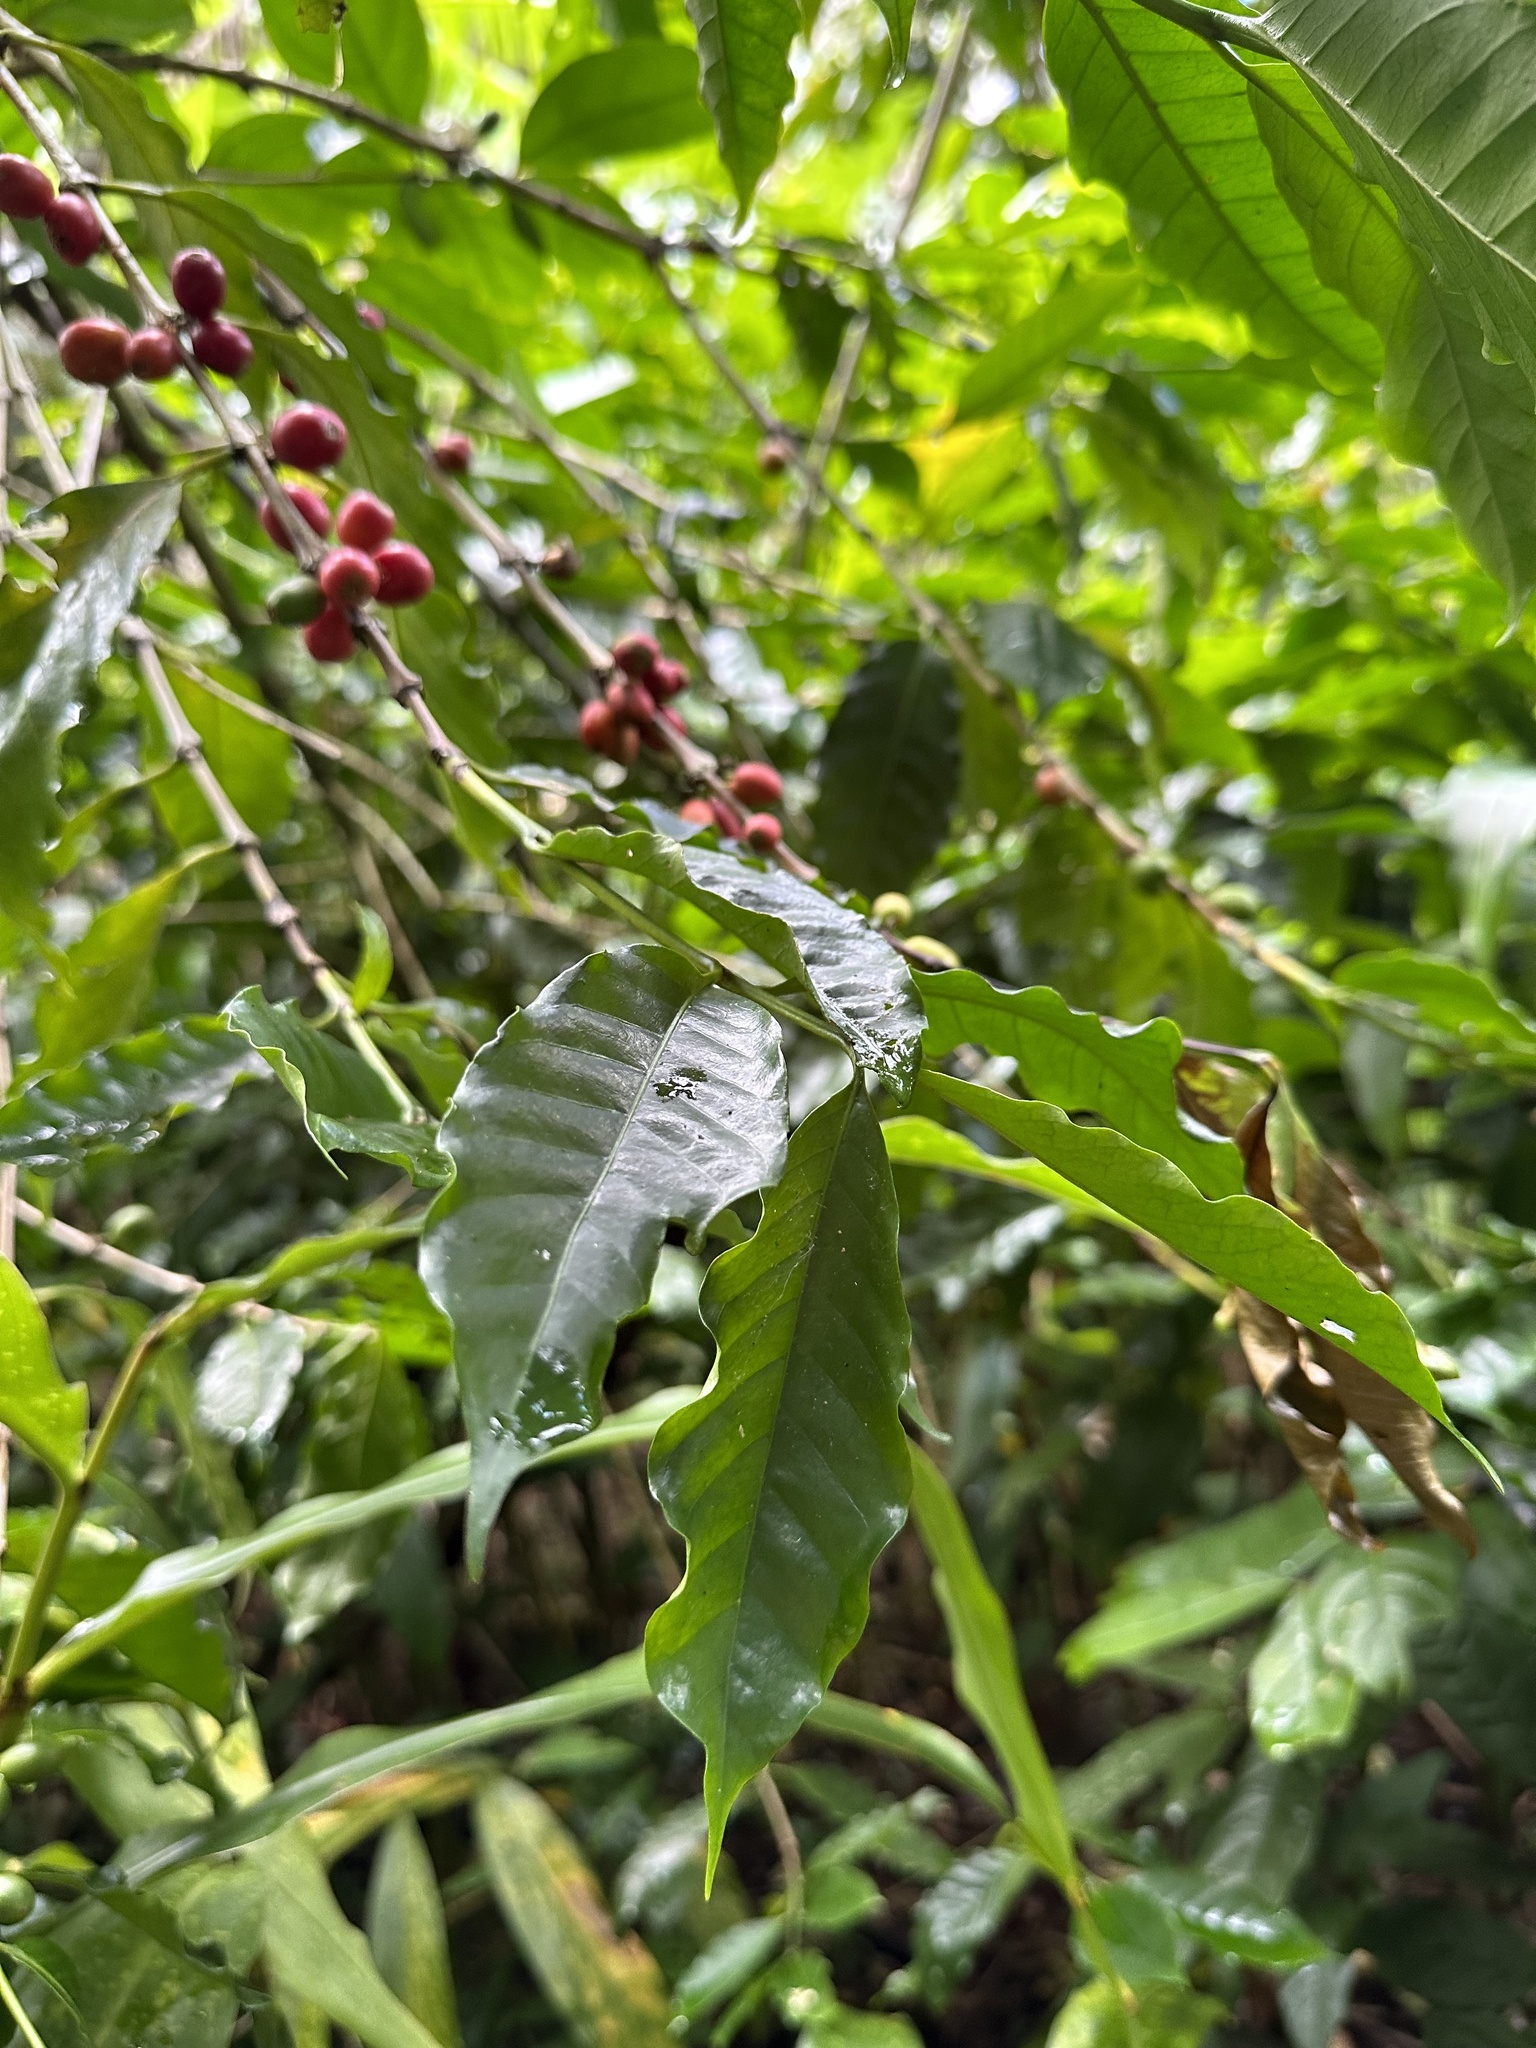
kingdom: Plantae
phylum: Tracheophyta
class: Magnoliopsida
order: Gentianales
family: Rubiaceae
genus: Coffea
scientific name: Coffea arabica
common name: Coffee
